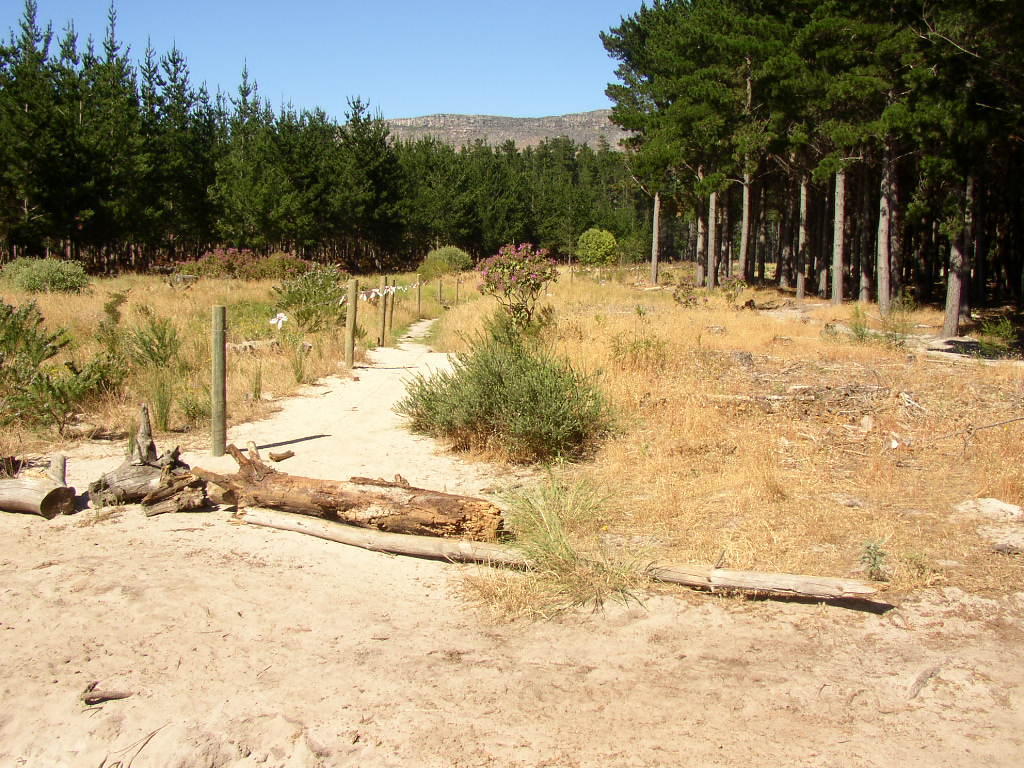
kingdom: Plantae
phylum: Tracheophyta
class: Magnoliopsida
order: Fabales
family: Fabaceae
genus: Psoralea
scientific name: Psoralea pinnata
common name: African scurfpea
